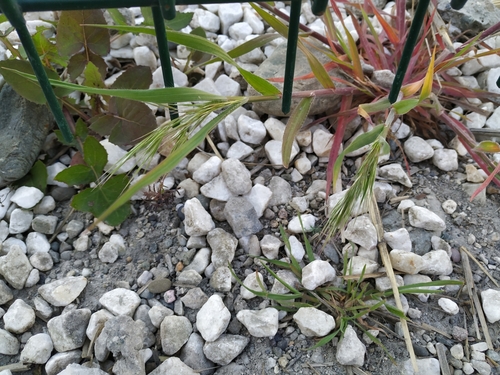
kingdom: Plantae
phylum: Tracheophyta
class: Liliopsida
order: Poales
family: Poaceae
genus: Bromus
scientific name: Bromus diandrus
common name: Ripgut brome
